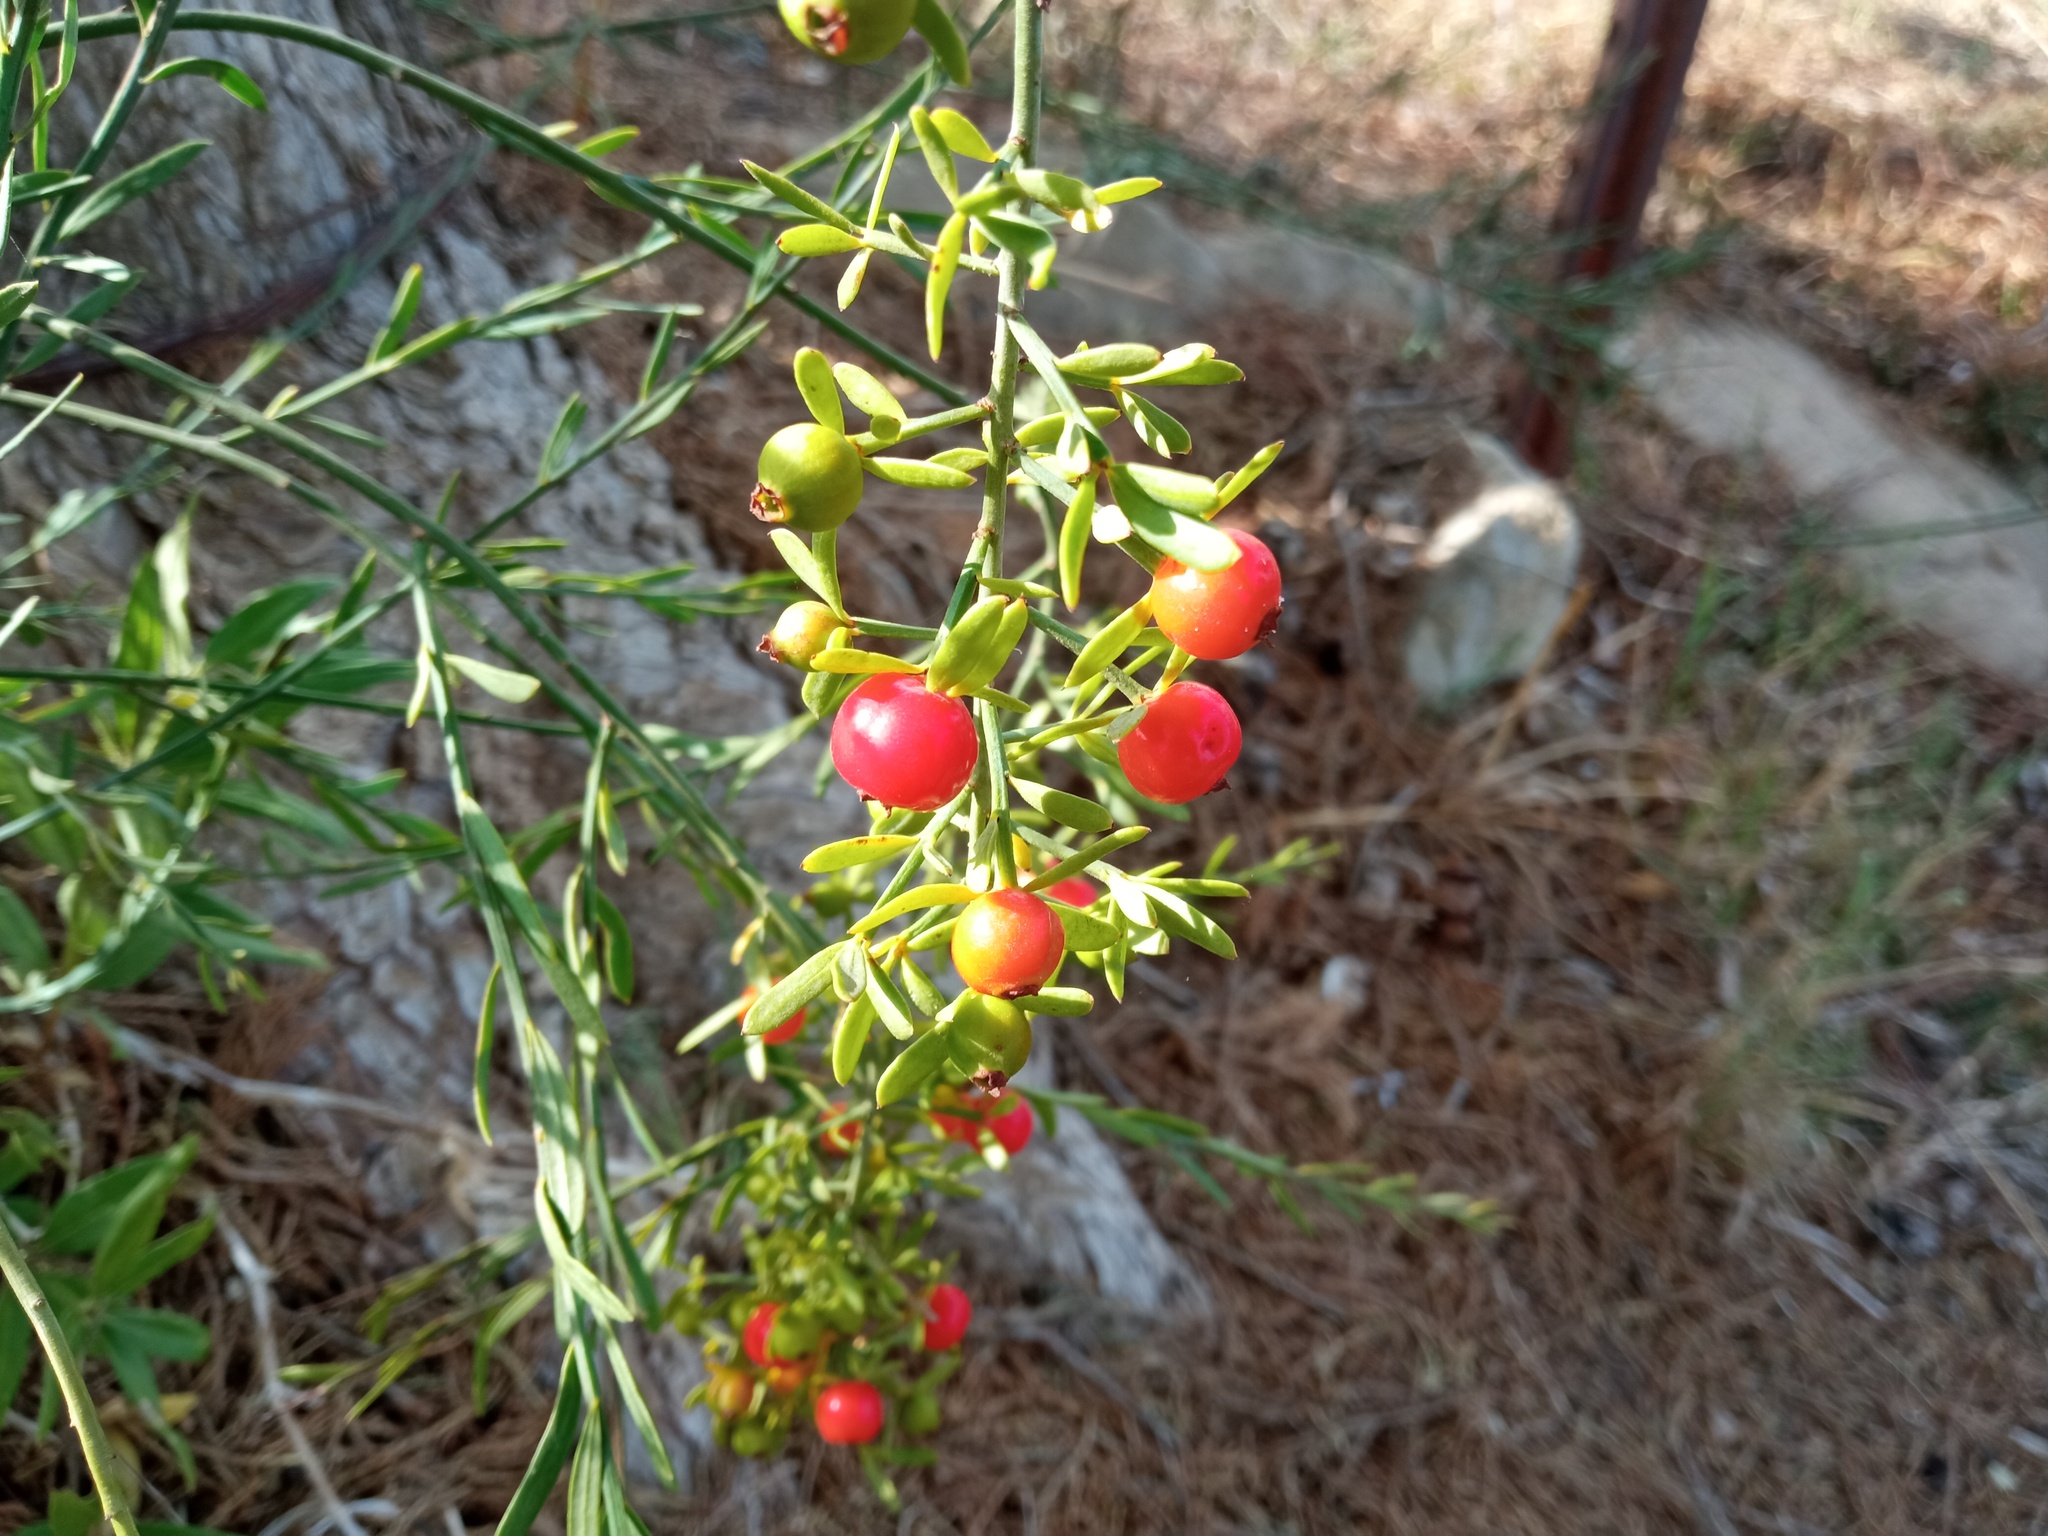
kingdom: Plantae
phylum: Tracheophyta
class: Magnoliopsida
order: Santalales
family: Santalaceae
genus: Osyris
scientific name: Osyris alba
